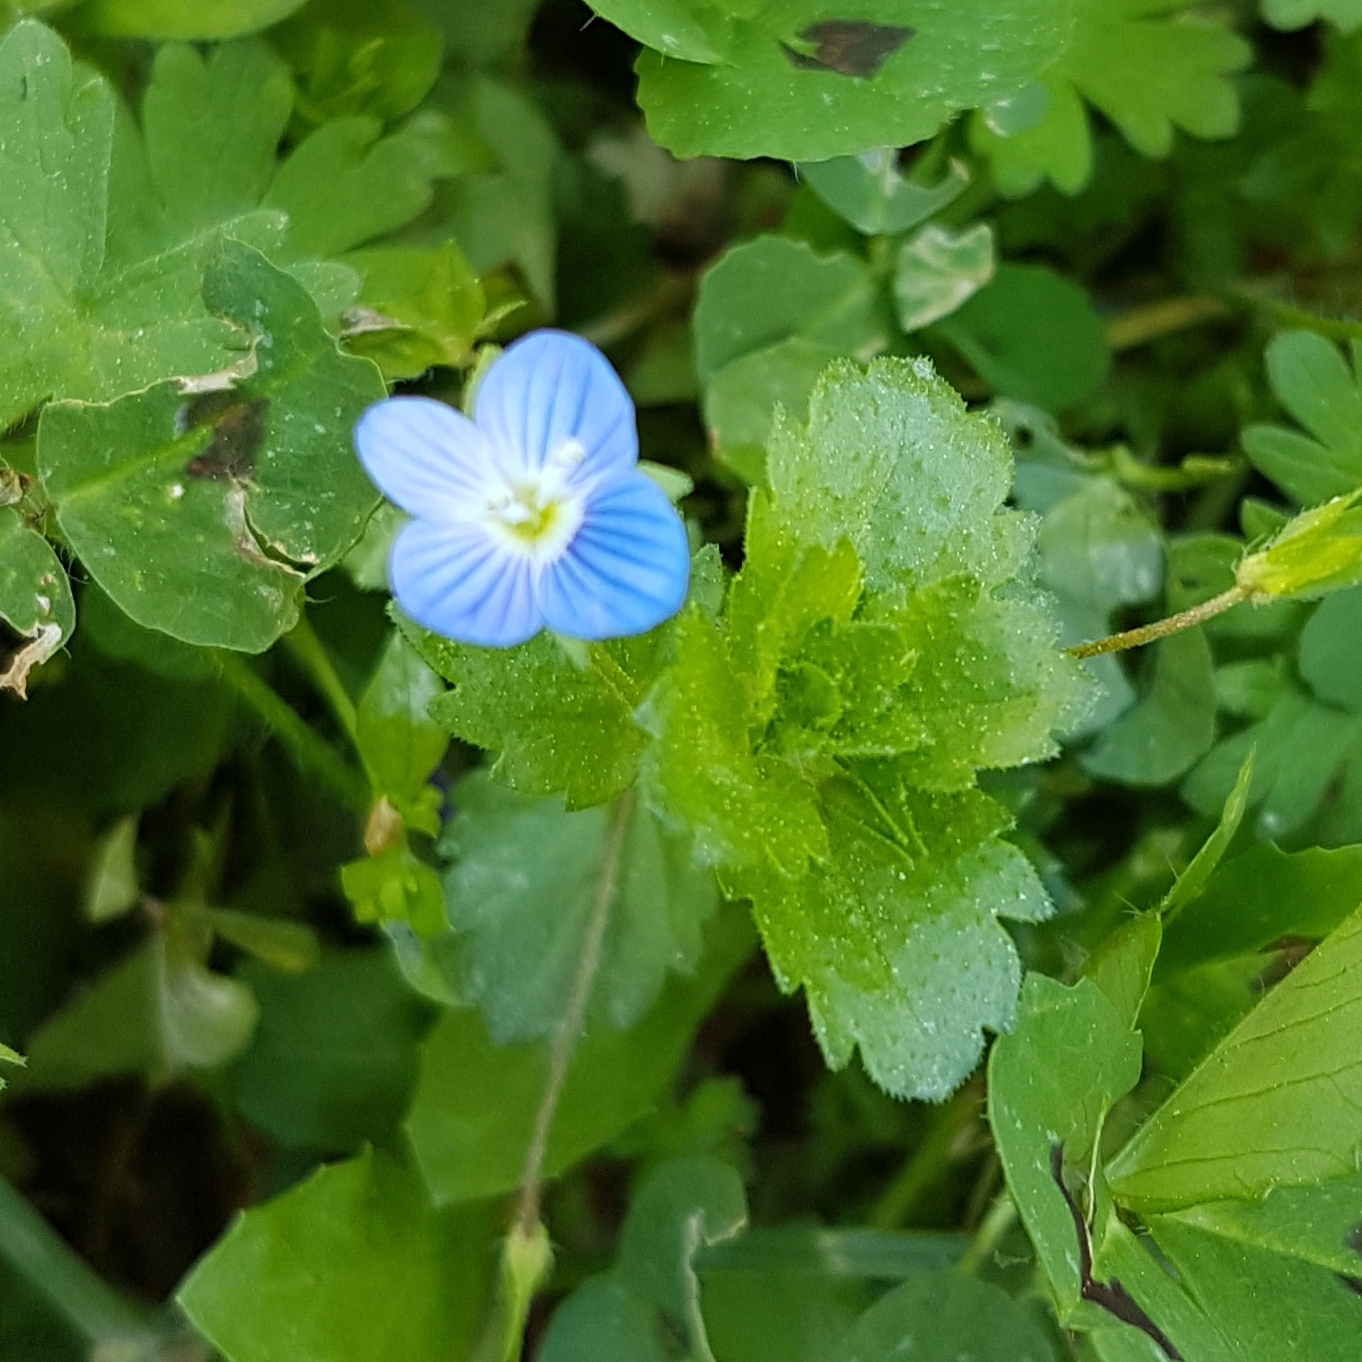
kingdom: Plantae
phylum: Tracheophyta
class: Magnoliopsida
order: Lamiales
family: Plantaginaceae
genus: Veronica
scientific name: Veronica persica
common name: Common field-speedwell
